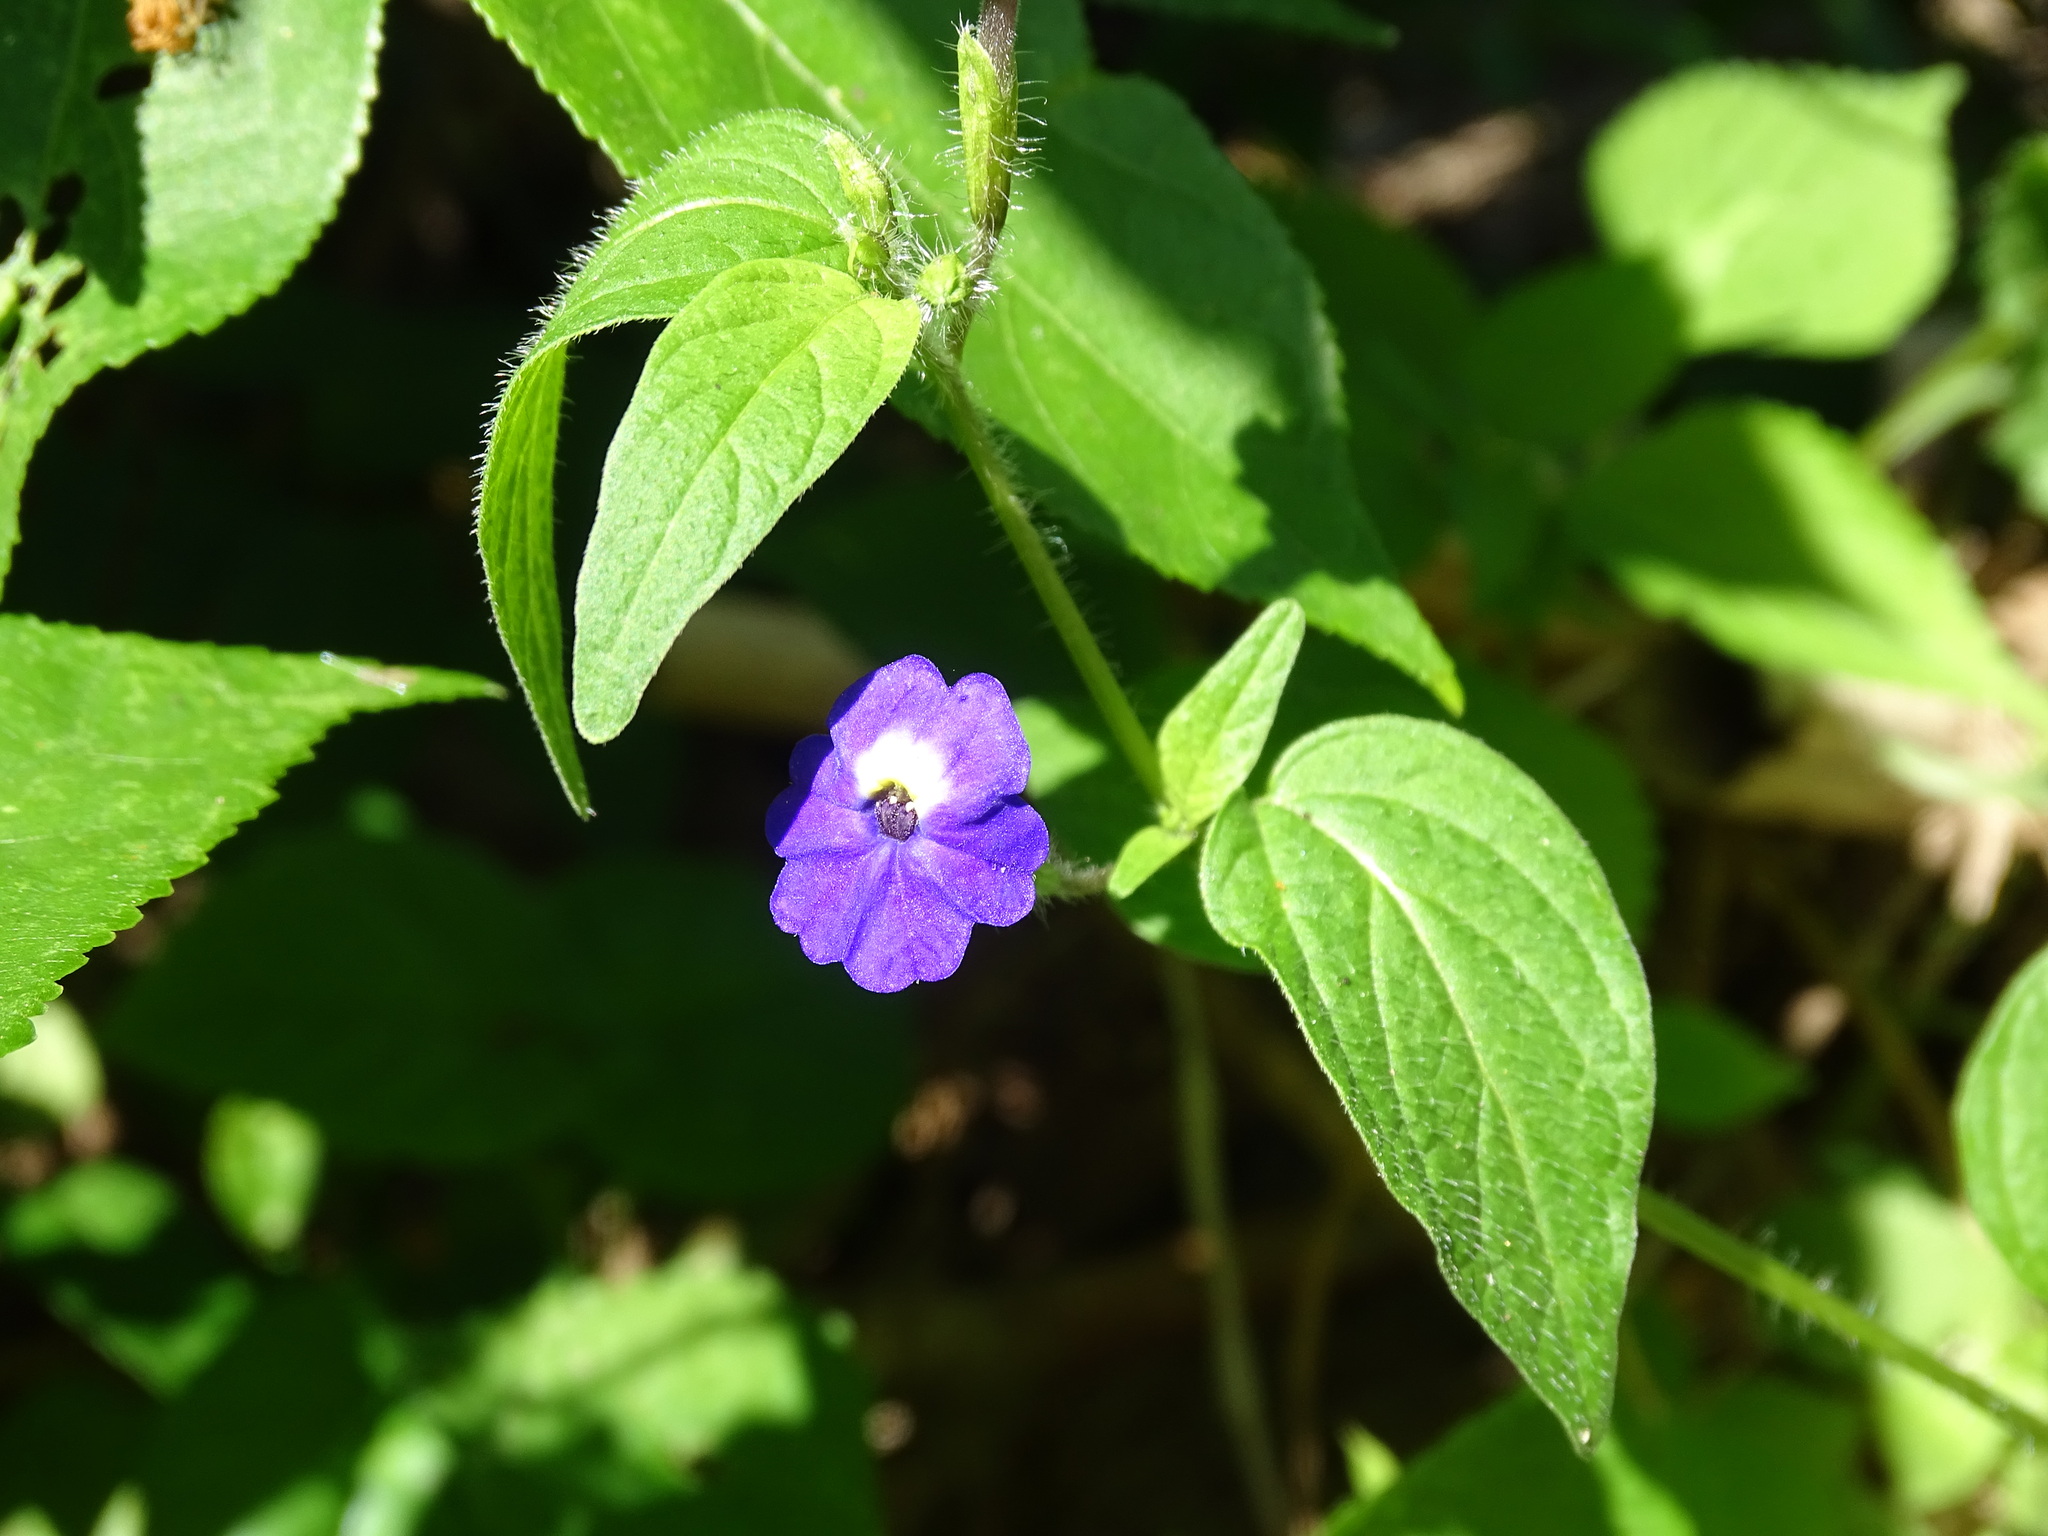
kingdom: Plantae
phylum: Tracheophyta
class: Magnoliopsida
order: Solanales
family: Solanaceae
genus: Browallia
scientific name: Browallia americana
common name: Jamaican forget-me-not
